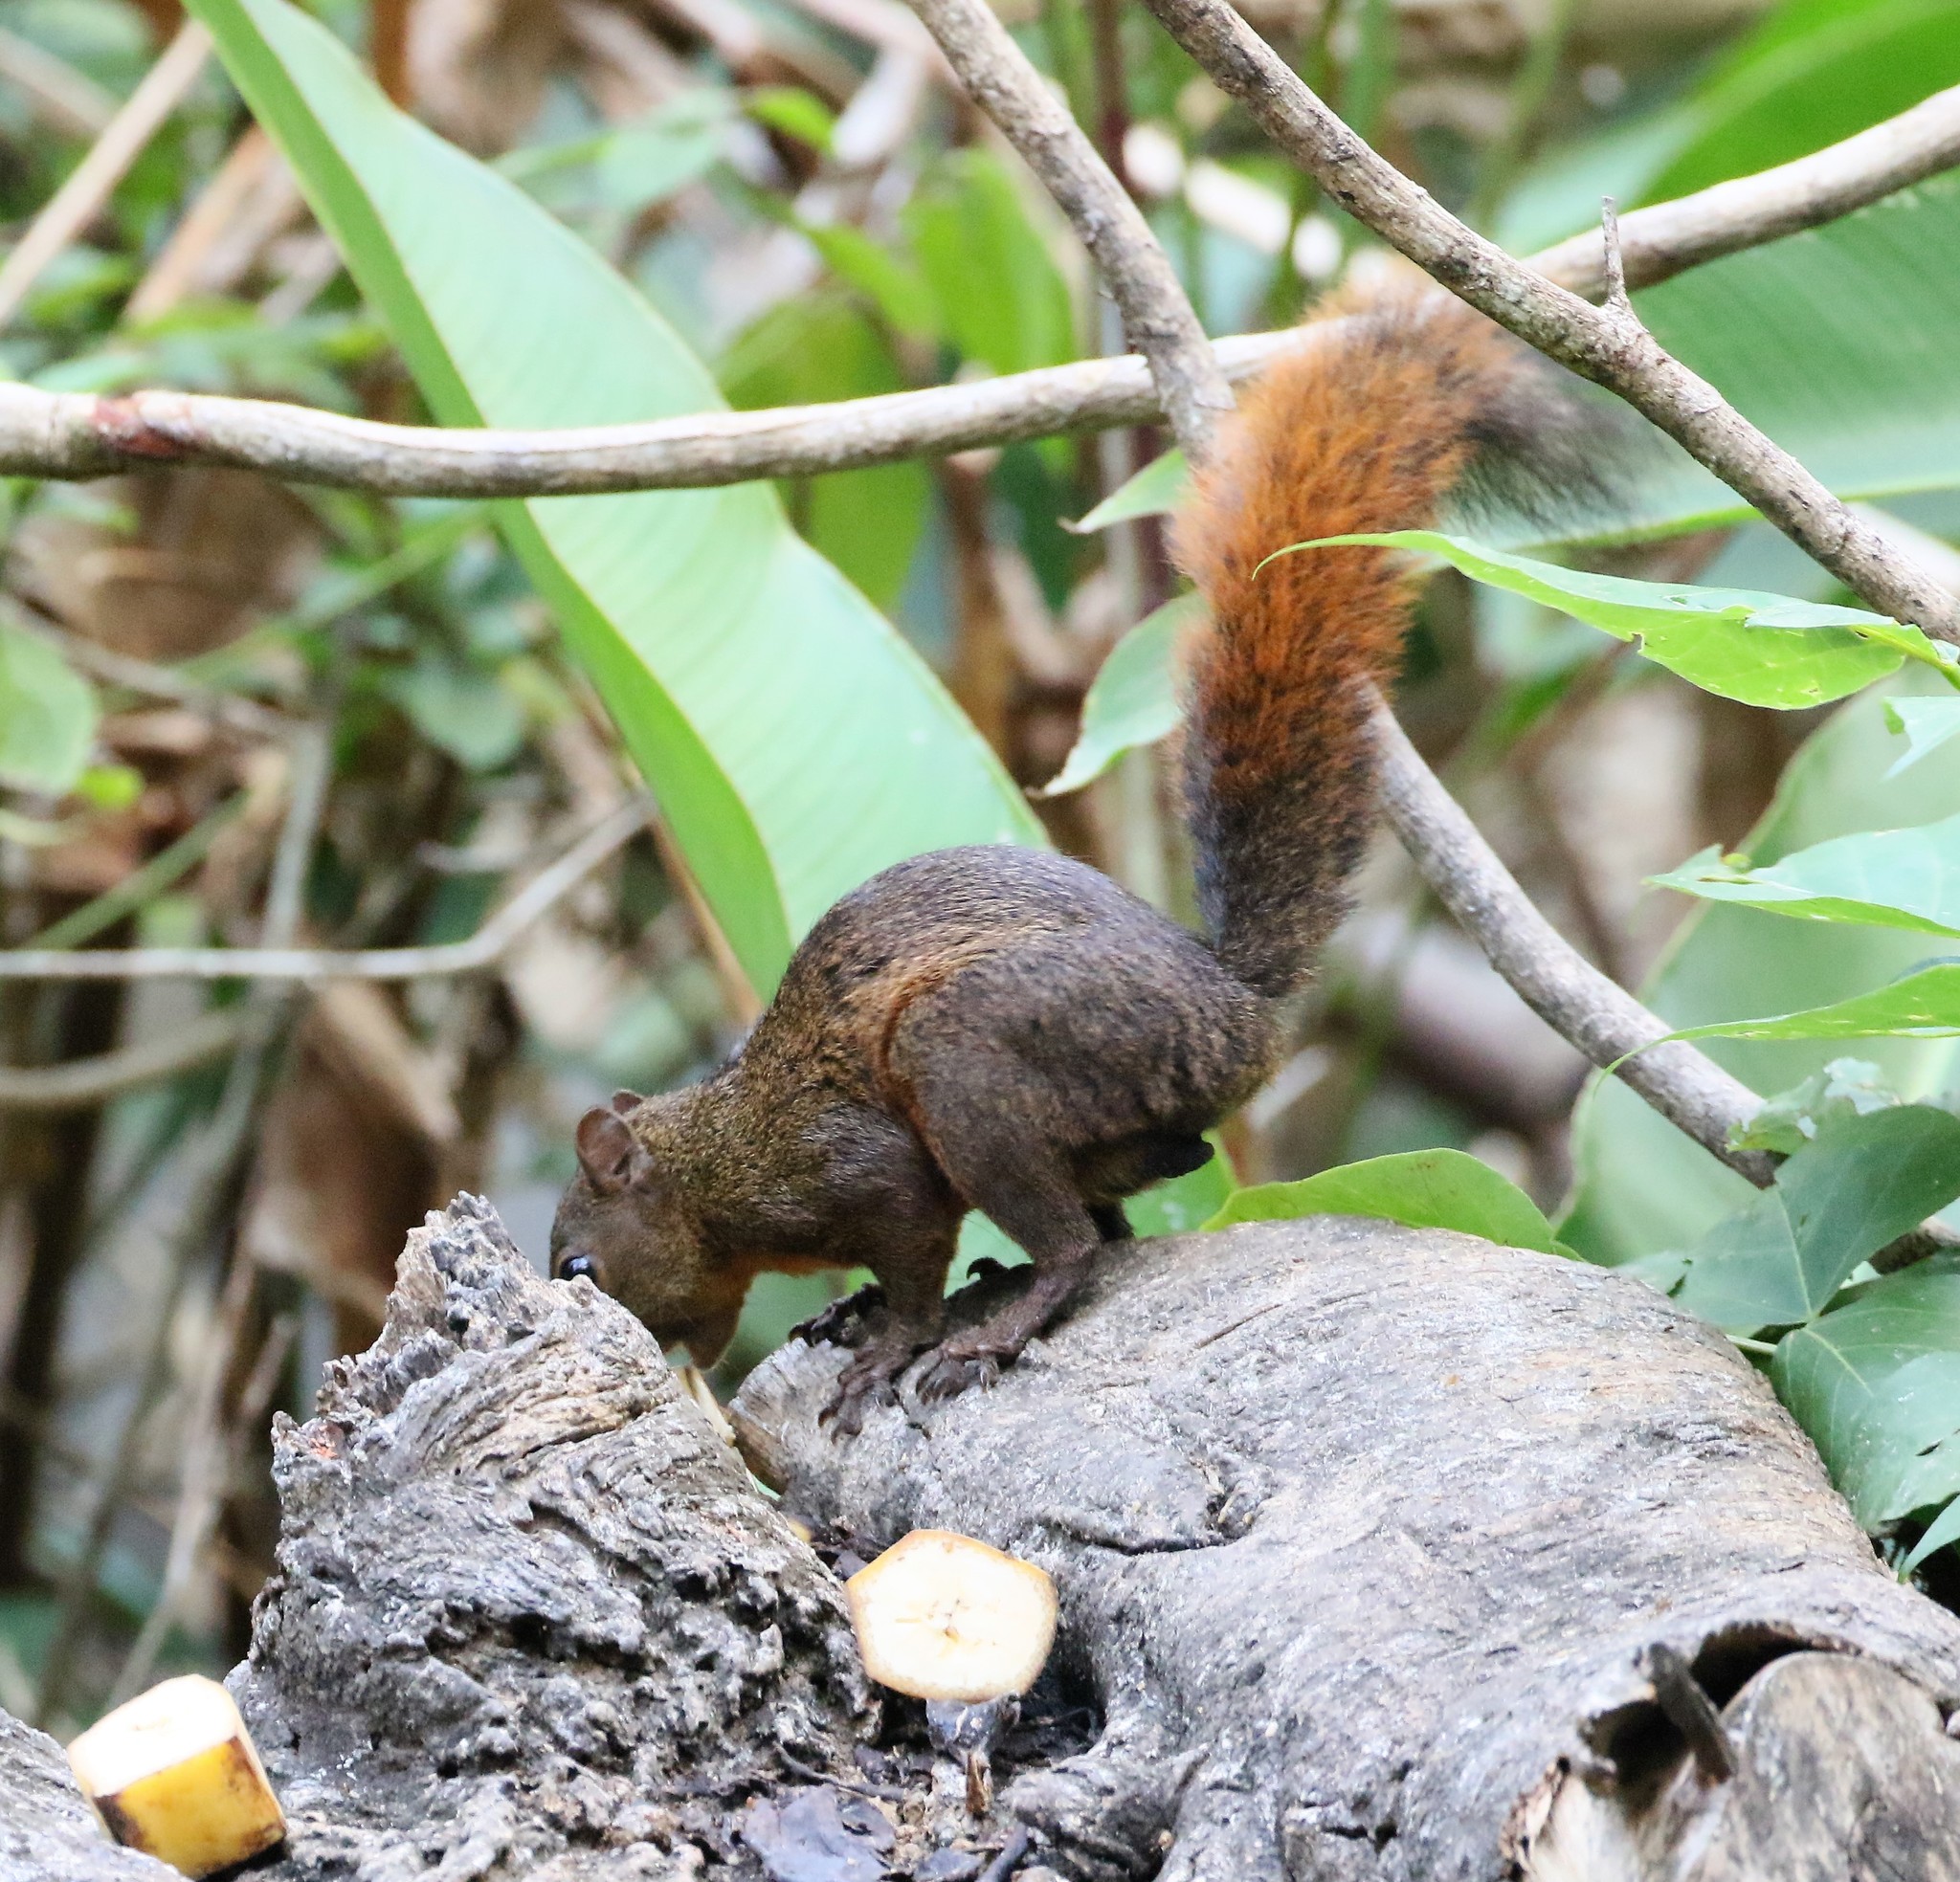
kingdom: Animalia
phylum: Chordata
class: Mammalia
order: Rodentia
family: Sciuridae
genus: Sciurus
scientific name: Sciurus granatensis
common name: Red-tailed squirrel
